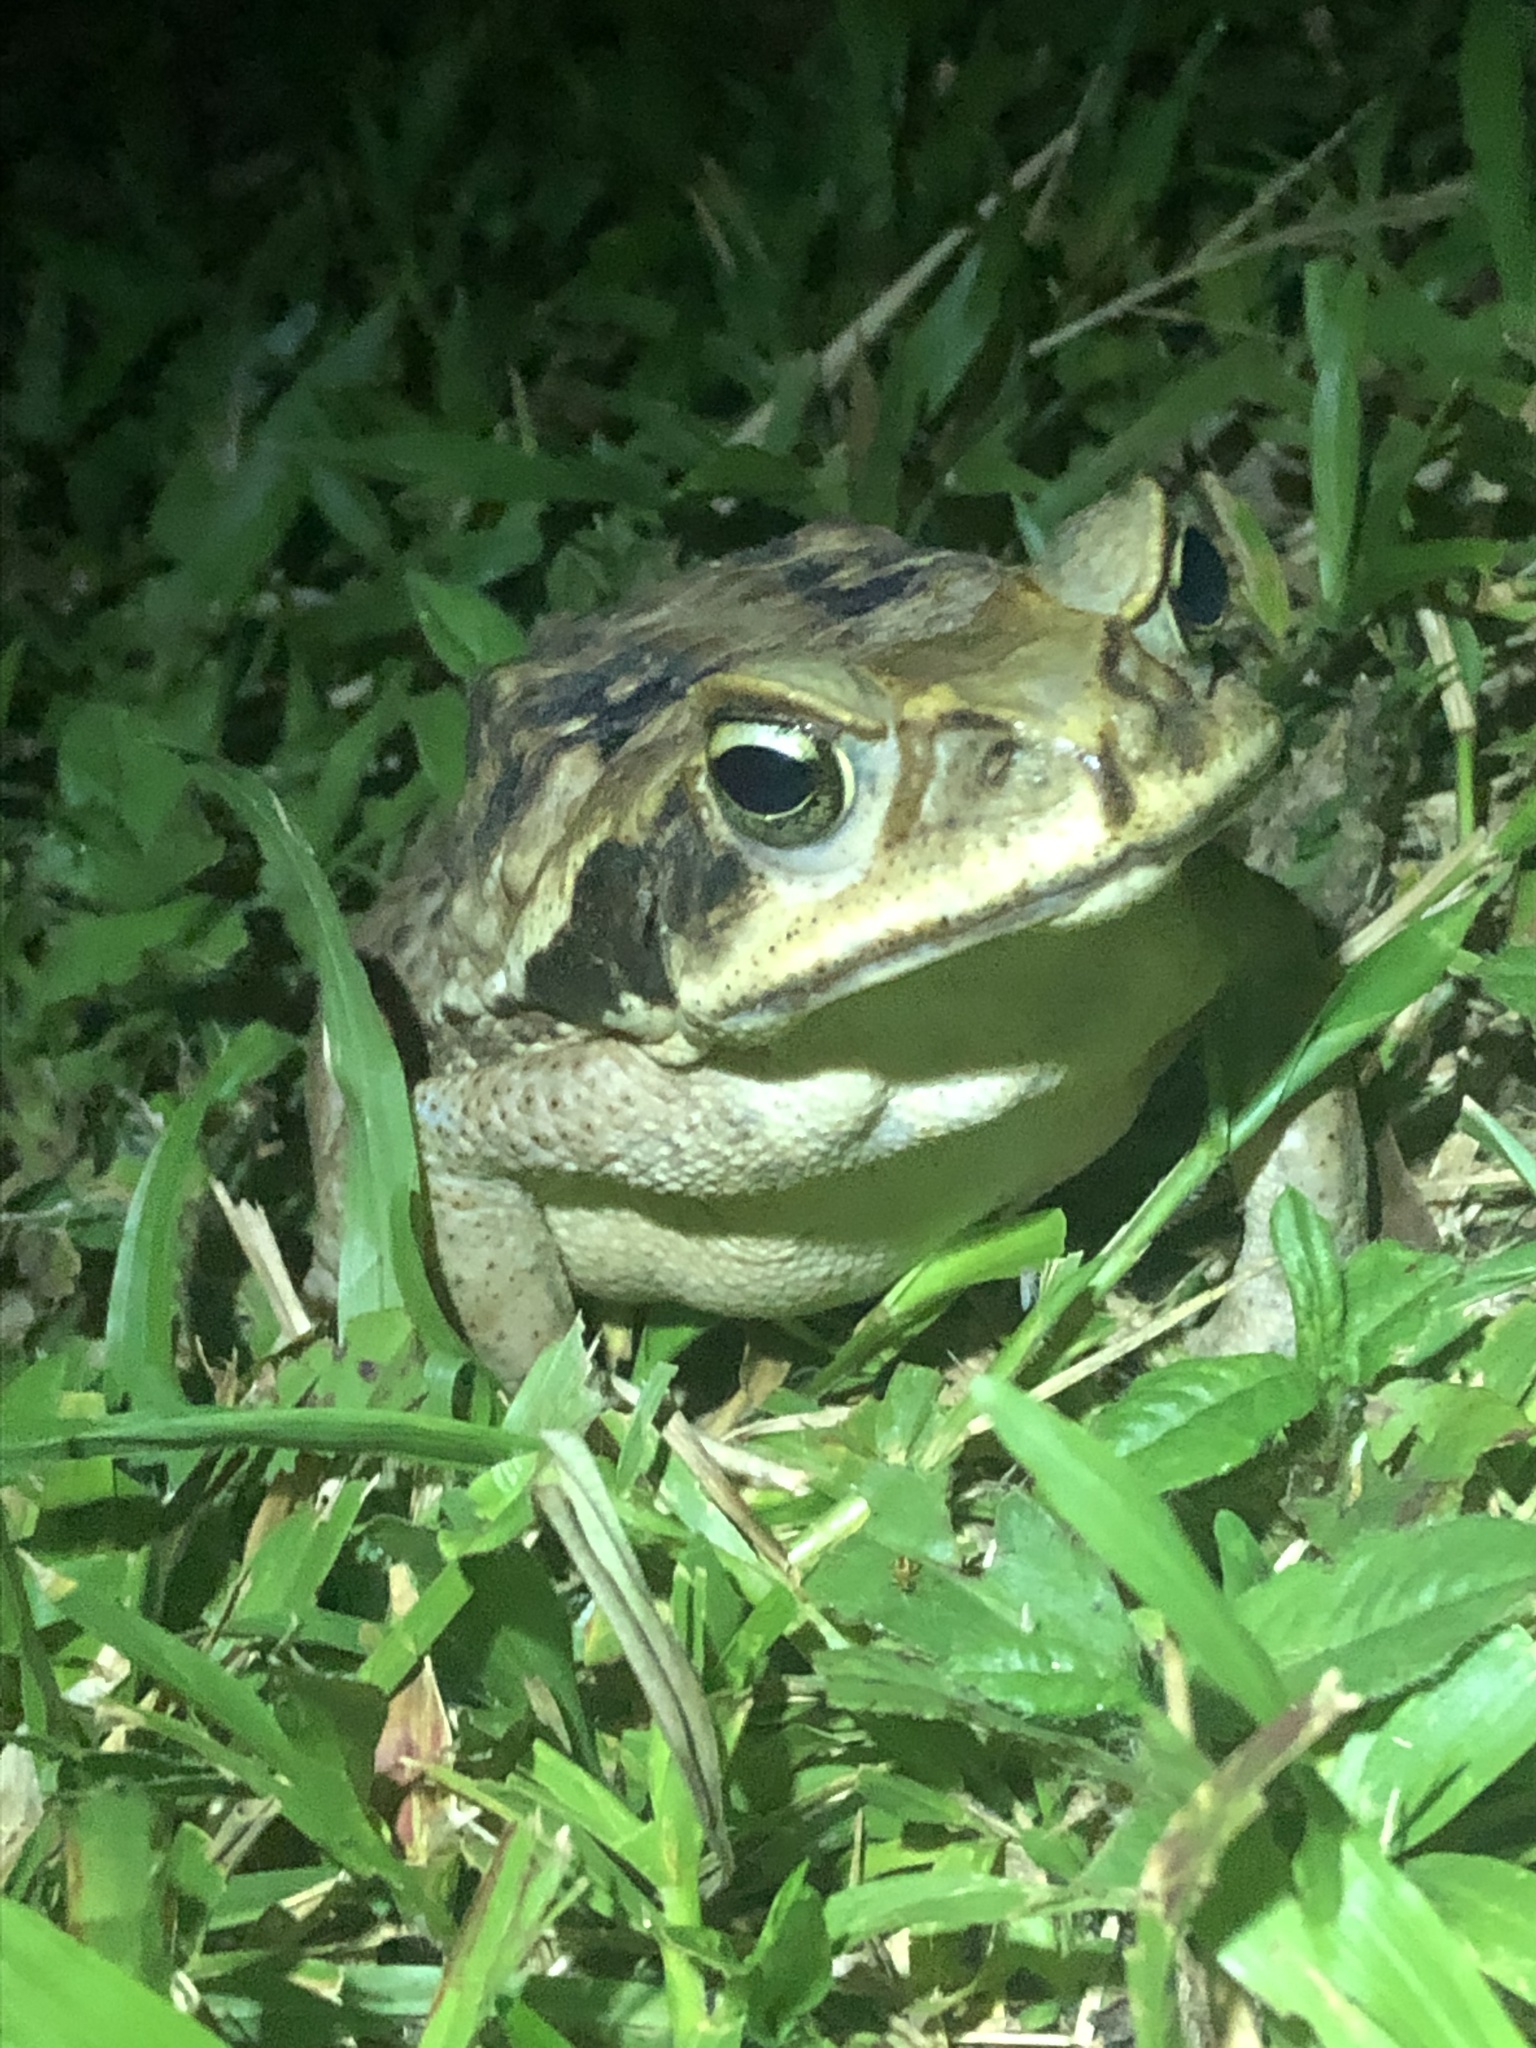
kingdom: Animalia
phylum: Chordata
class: Amphibia
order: Anura
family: Bufonidae
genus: Rhinella
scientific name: Rhinella marina
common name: Cane toad
